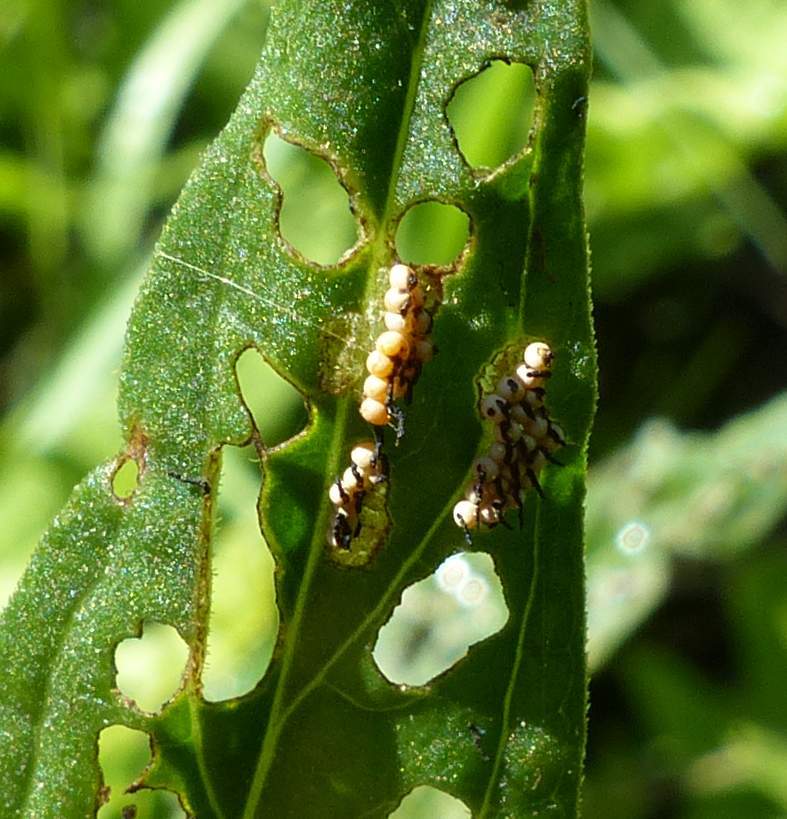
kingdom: Animalia
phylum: Arthropoda
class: Insecta
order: Coleoptera
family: Chrysomelidae
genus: Neogalerucella
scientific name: Neogalerucella calmariensis
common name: Black-margined loosestrife beetle
